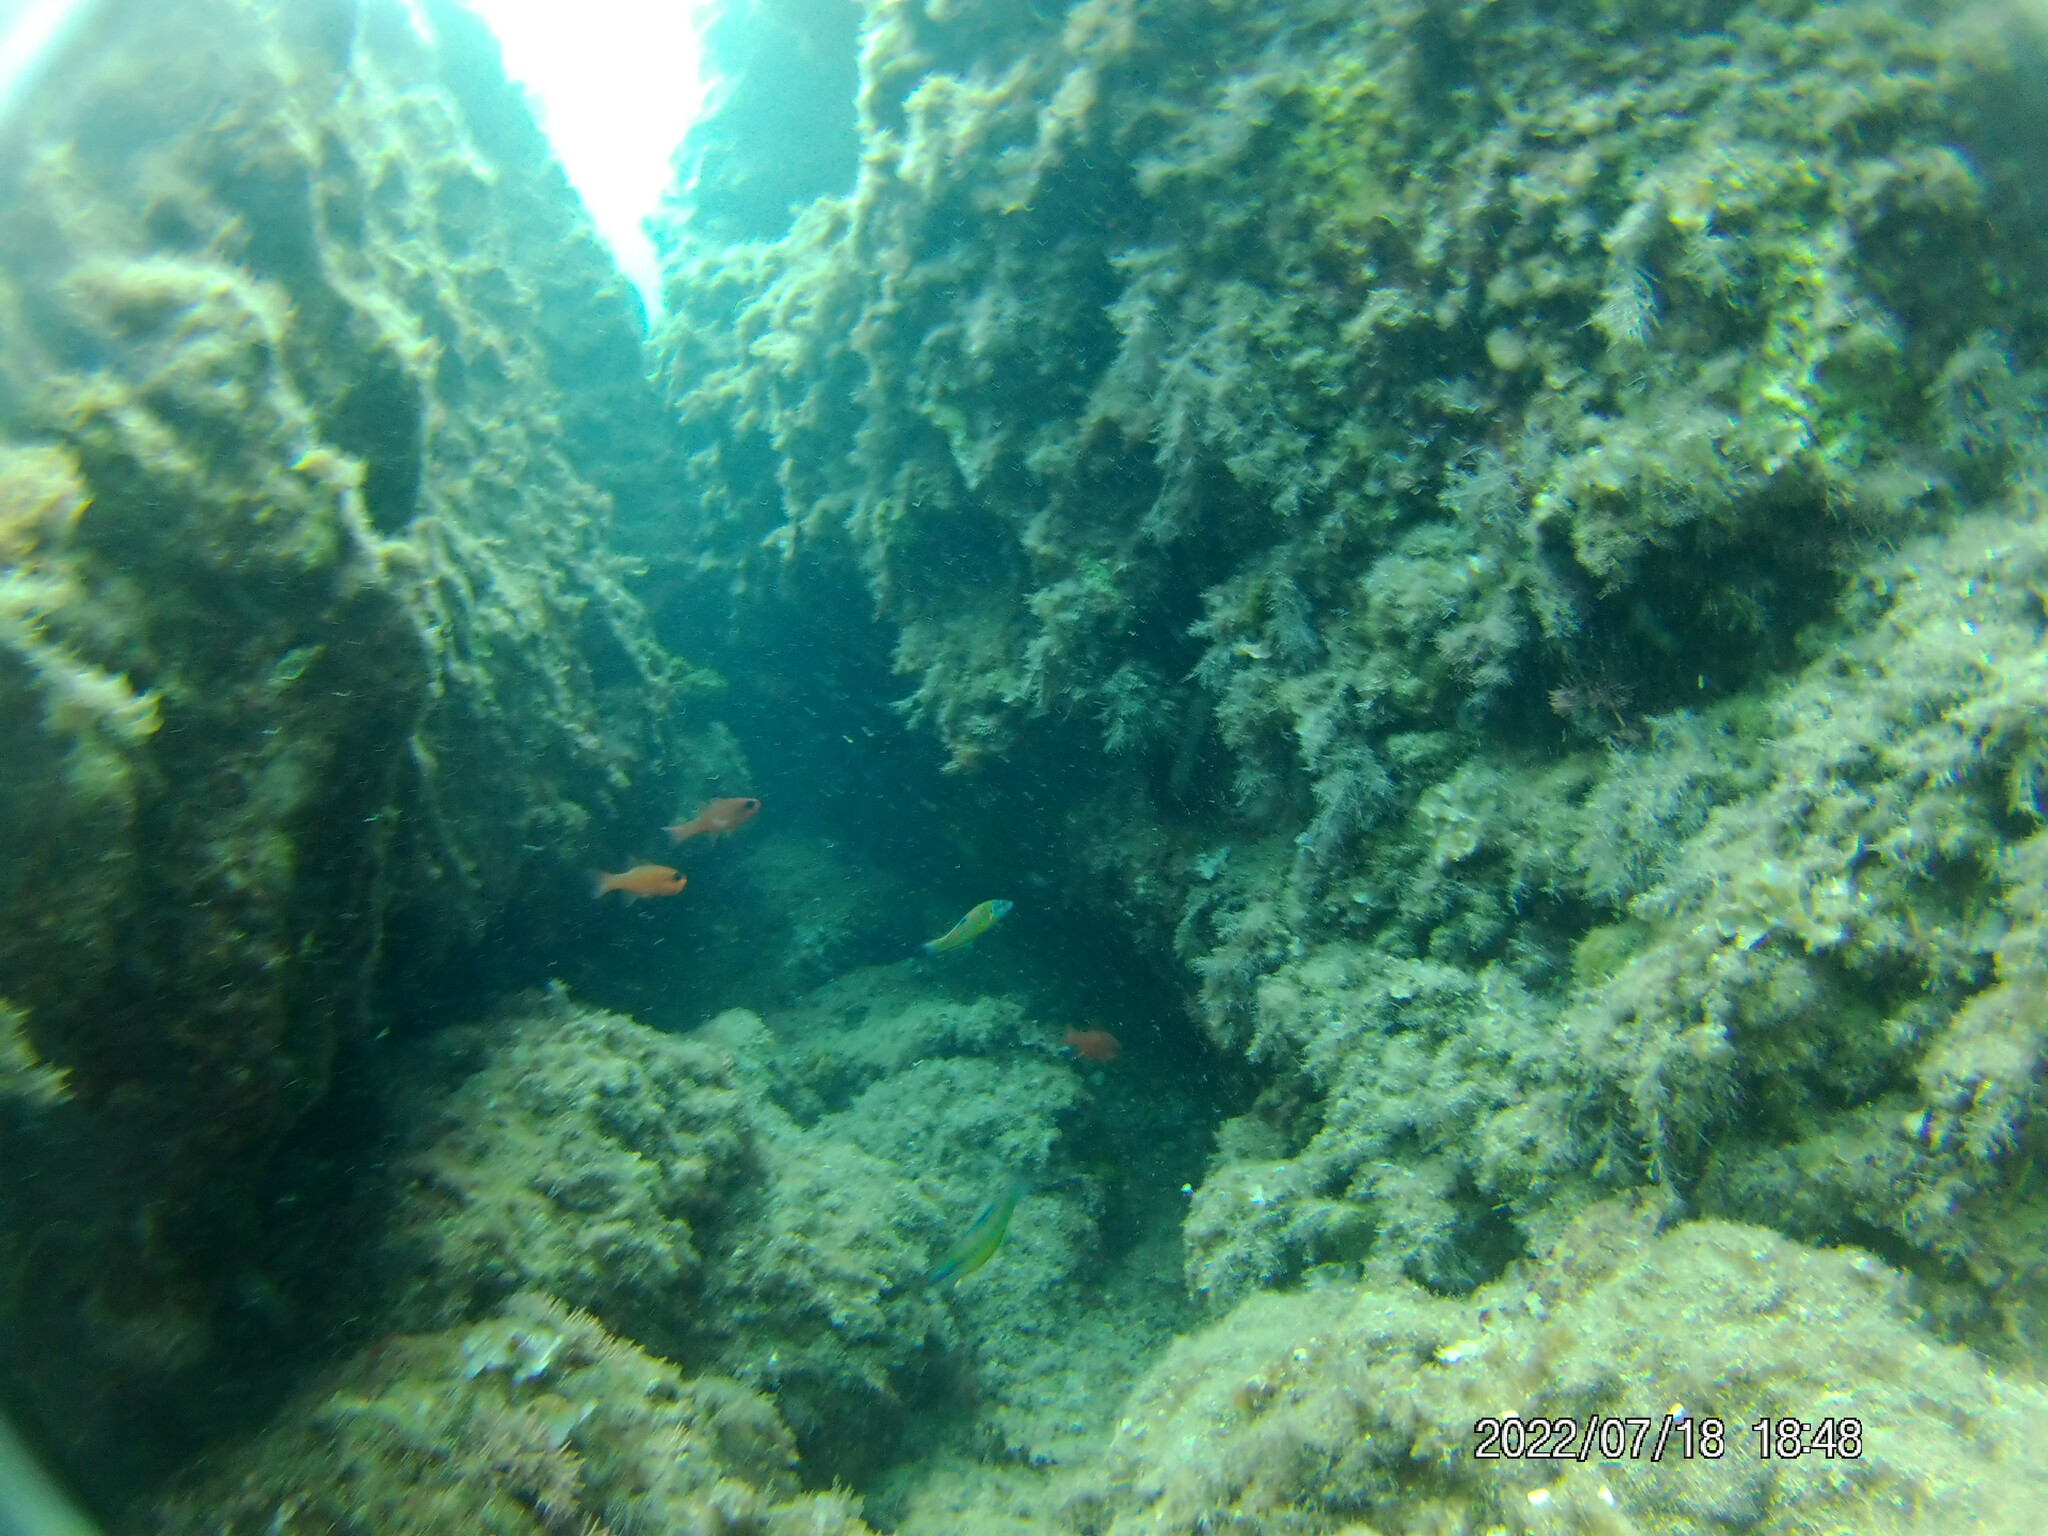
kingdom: Animalia
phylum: Chordata
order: Perciformes
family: Apogonidae
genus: Apogon
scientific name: Apogon imberbis
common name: Cardinal fish
